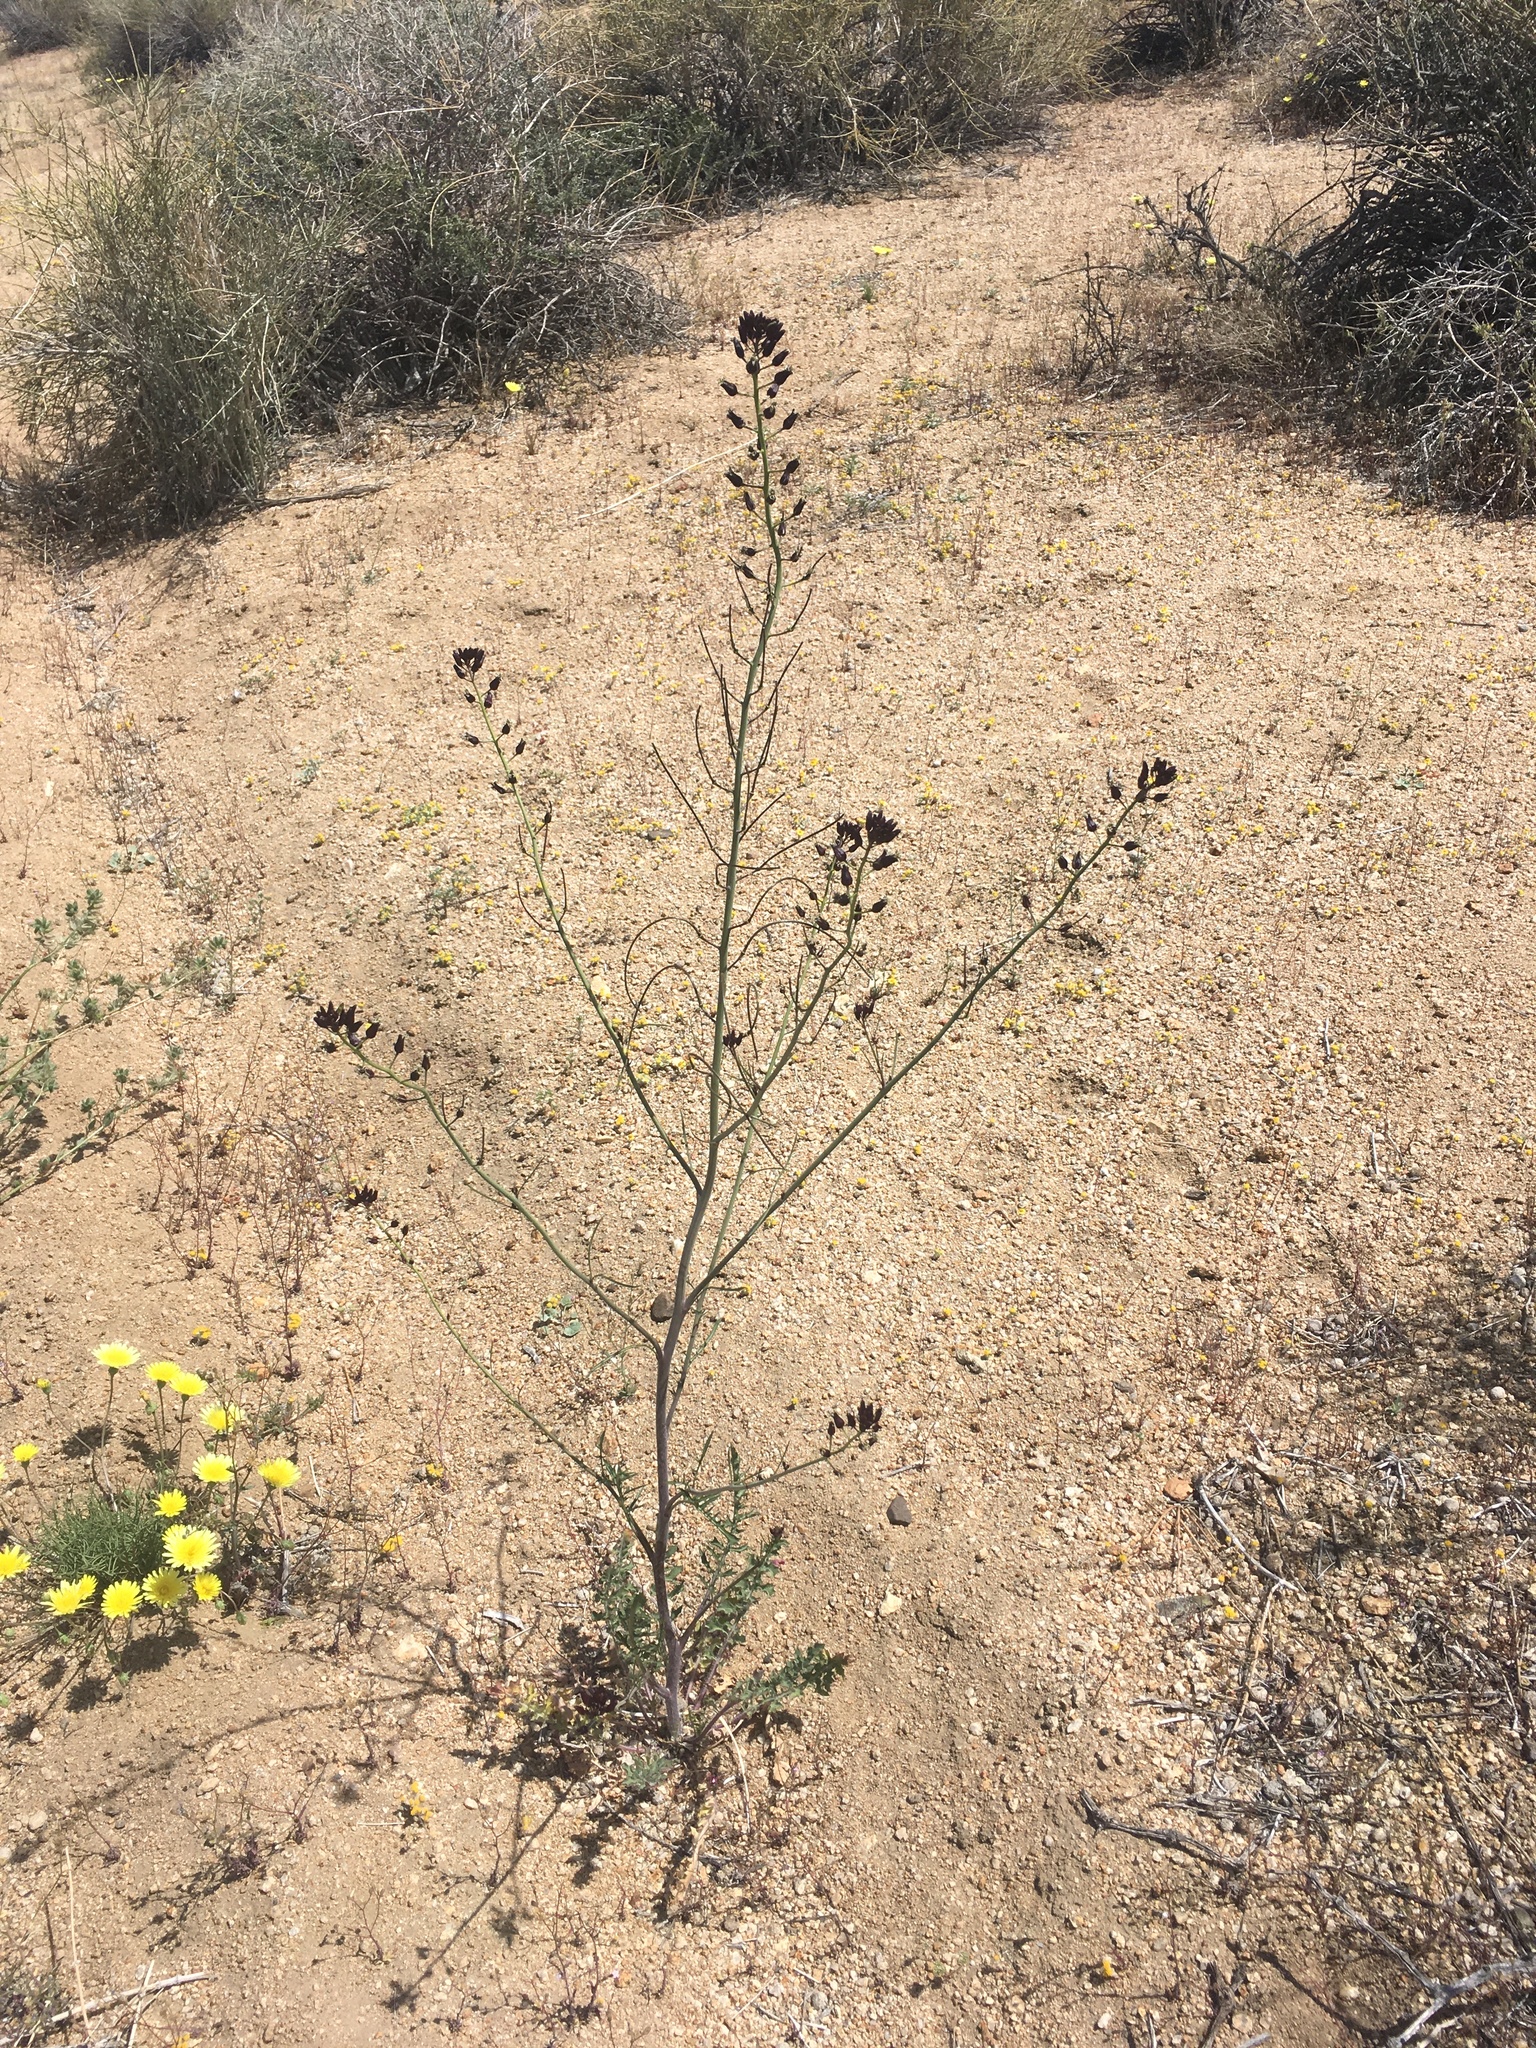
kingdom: Plantae
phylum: Tracheophyta
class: Magnoliopsida
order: Brassicales
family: Brassicaceae
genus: Streptanthus
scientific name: Streptanthus pilosus
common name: Chocolate drops
